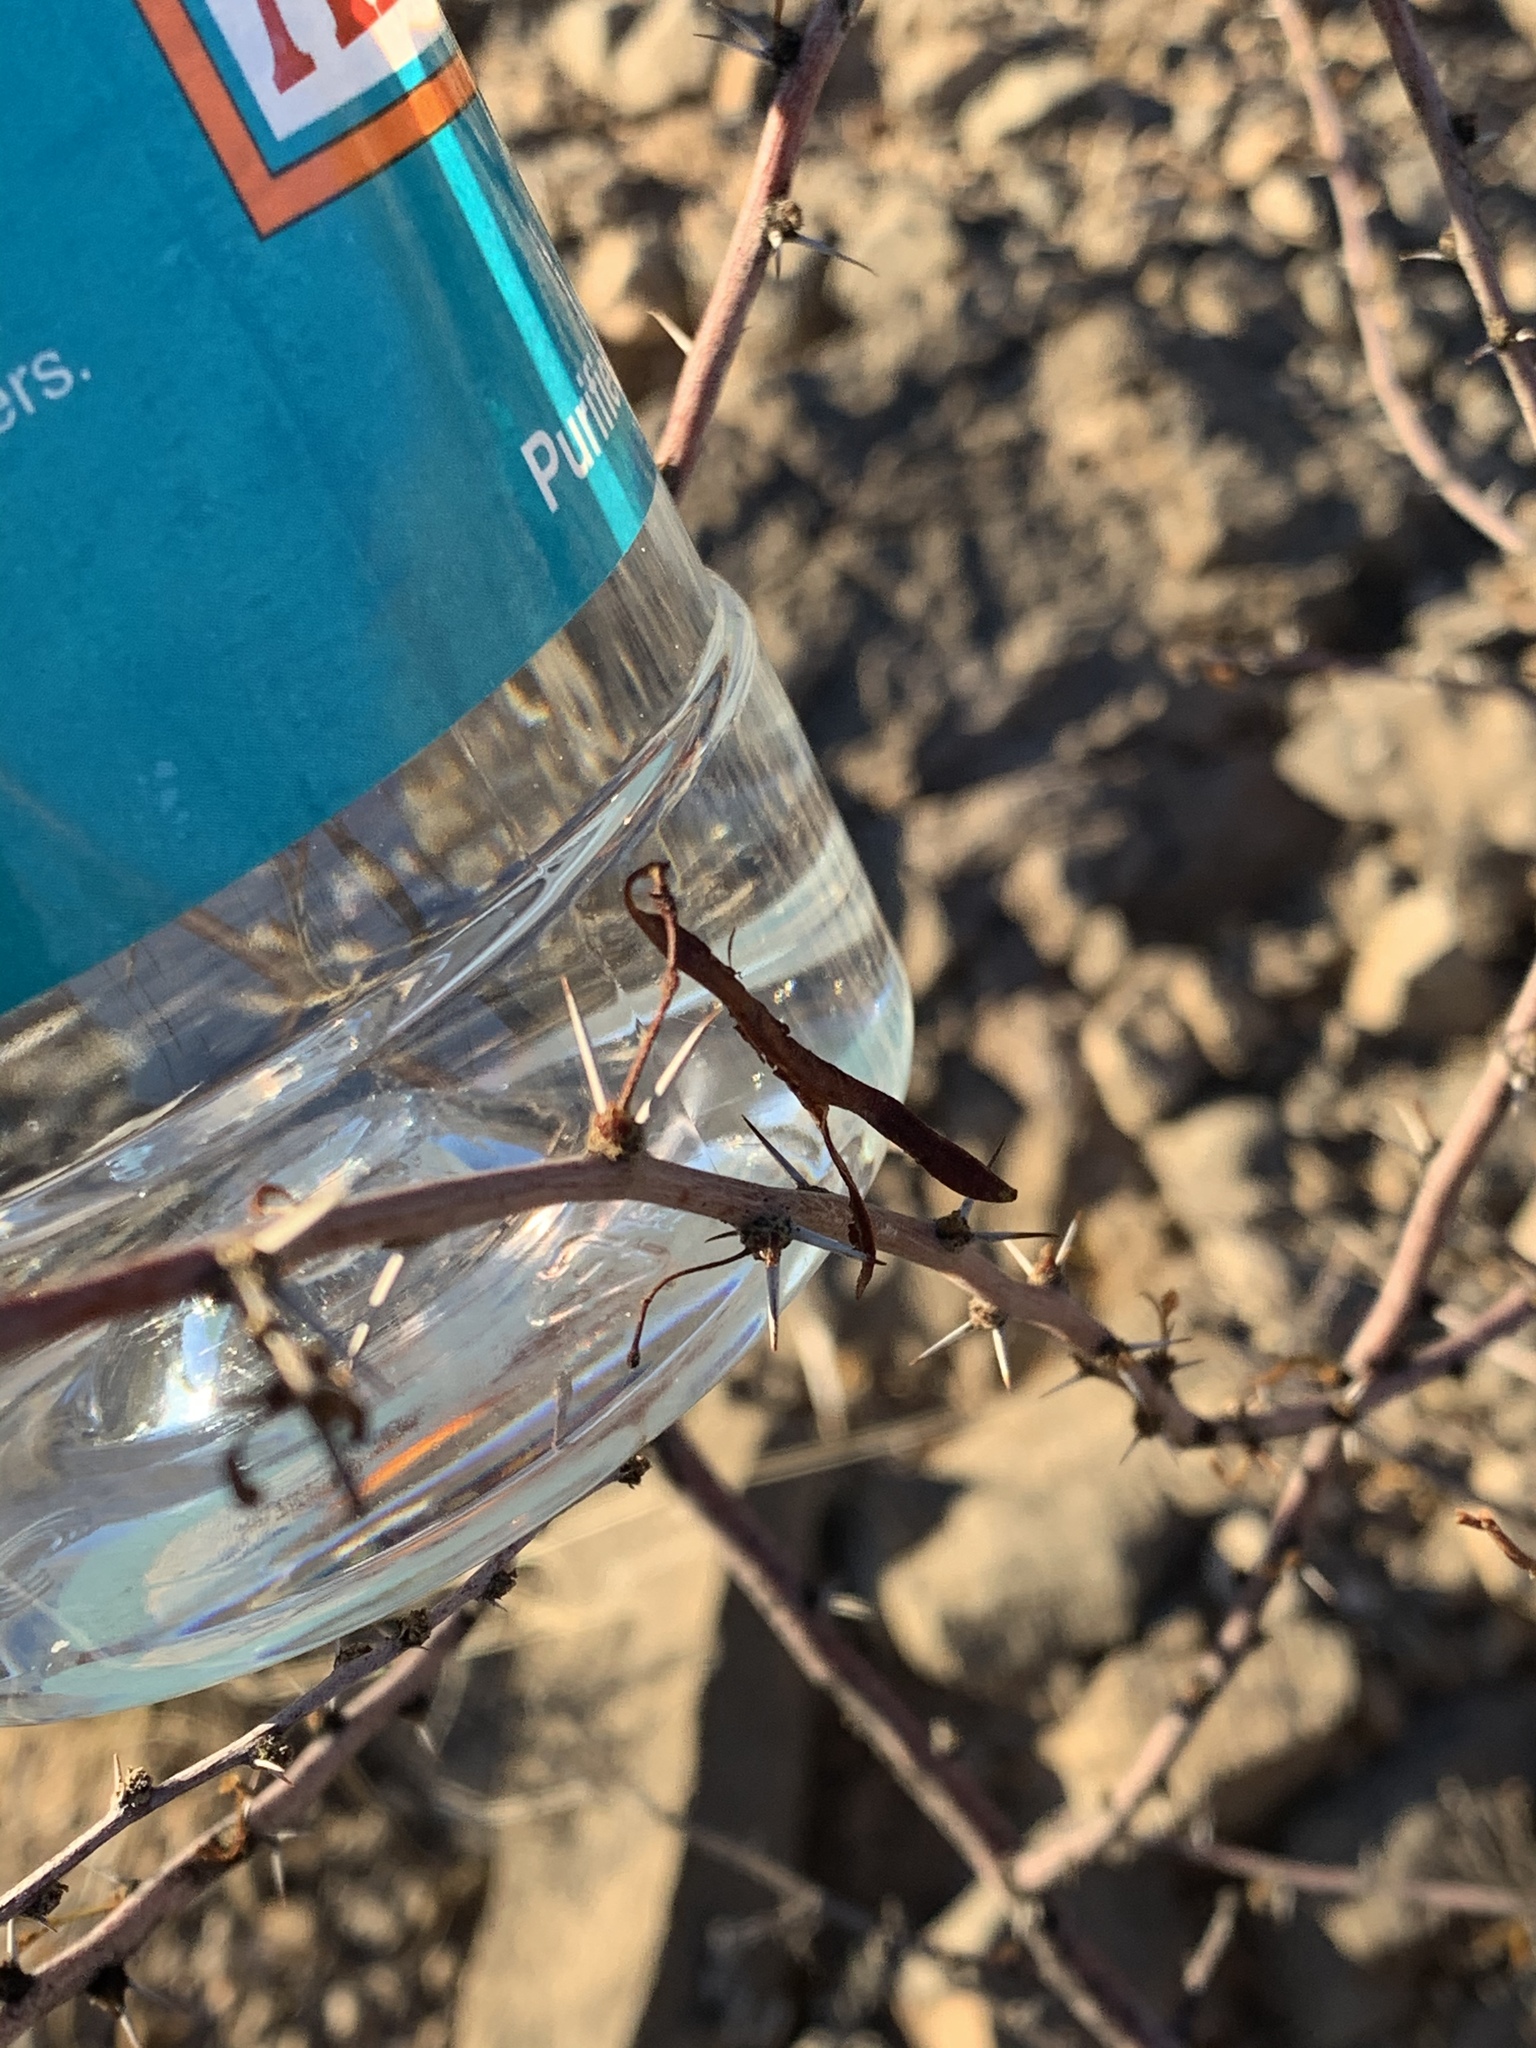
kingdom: Plantae
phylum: Tracheophyta
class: Magnoliopsida
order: Fabales
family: Fabaceae
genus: Vachellia
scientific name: Vachellia constricta
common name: Mescat acacia
